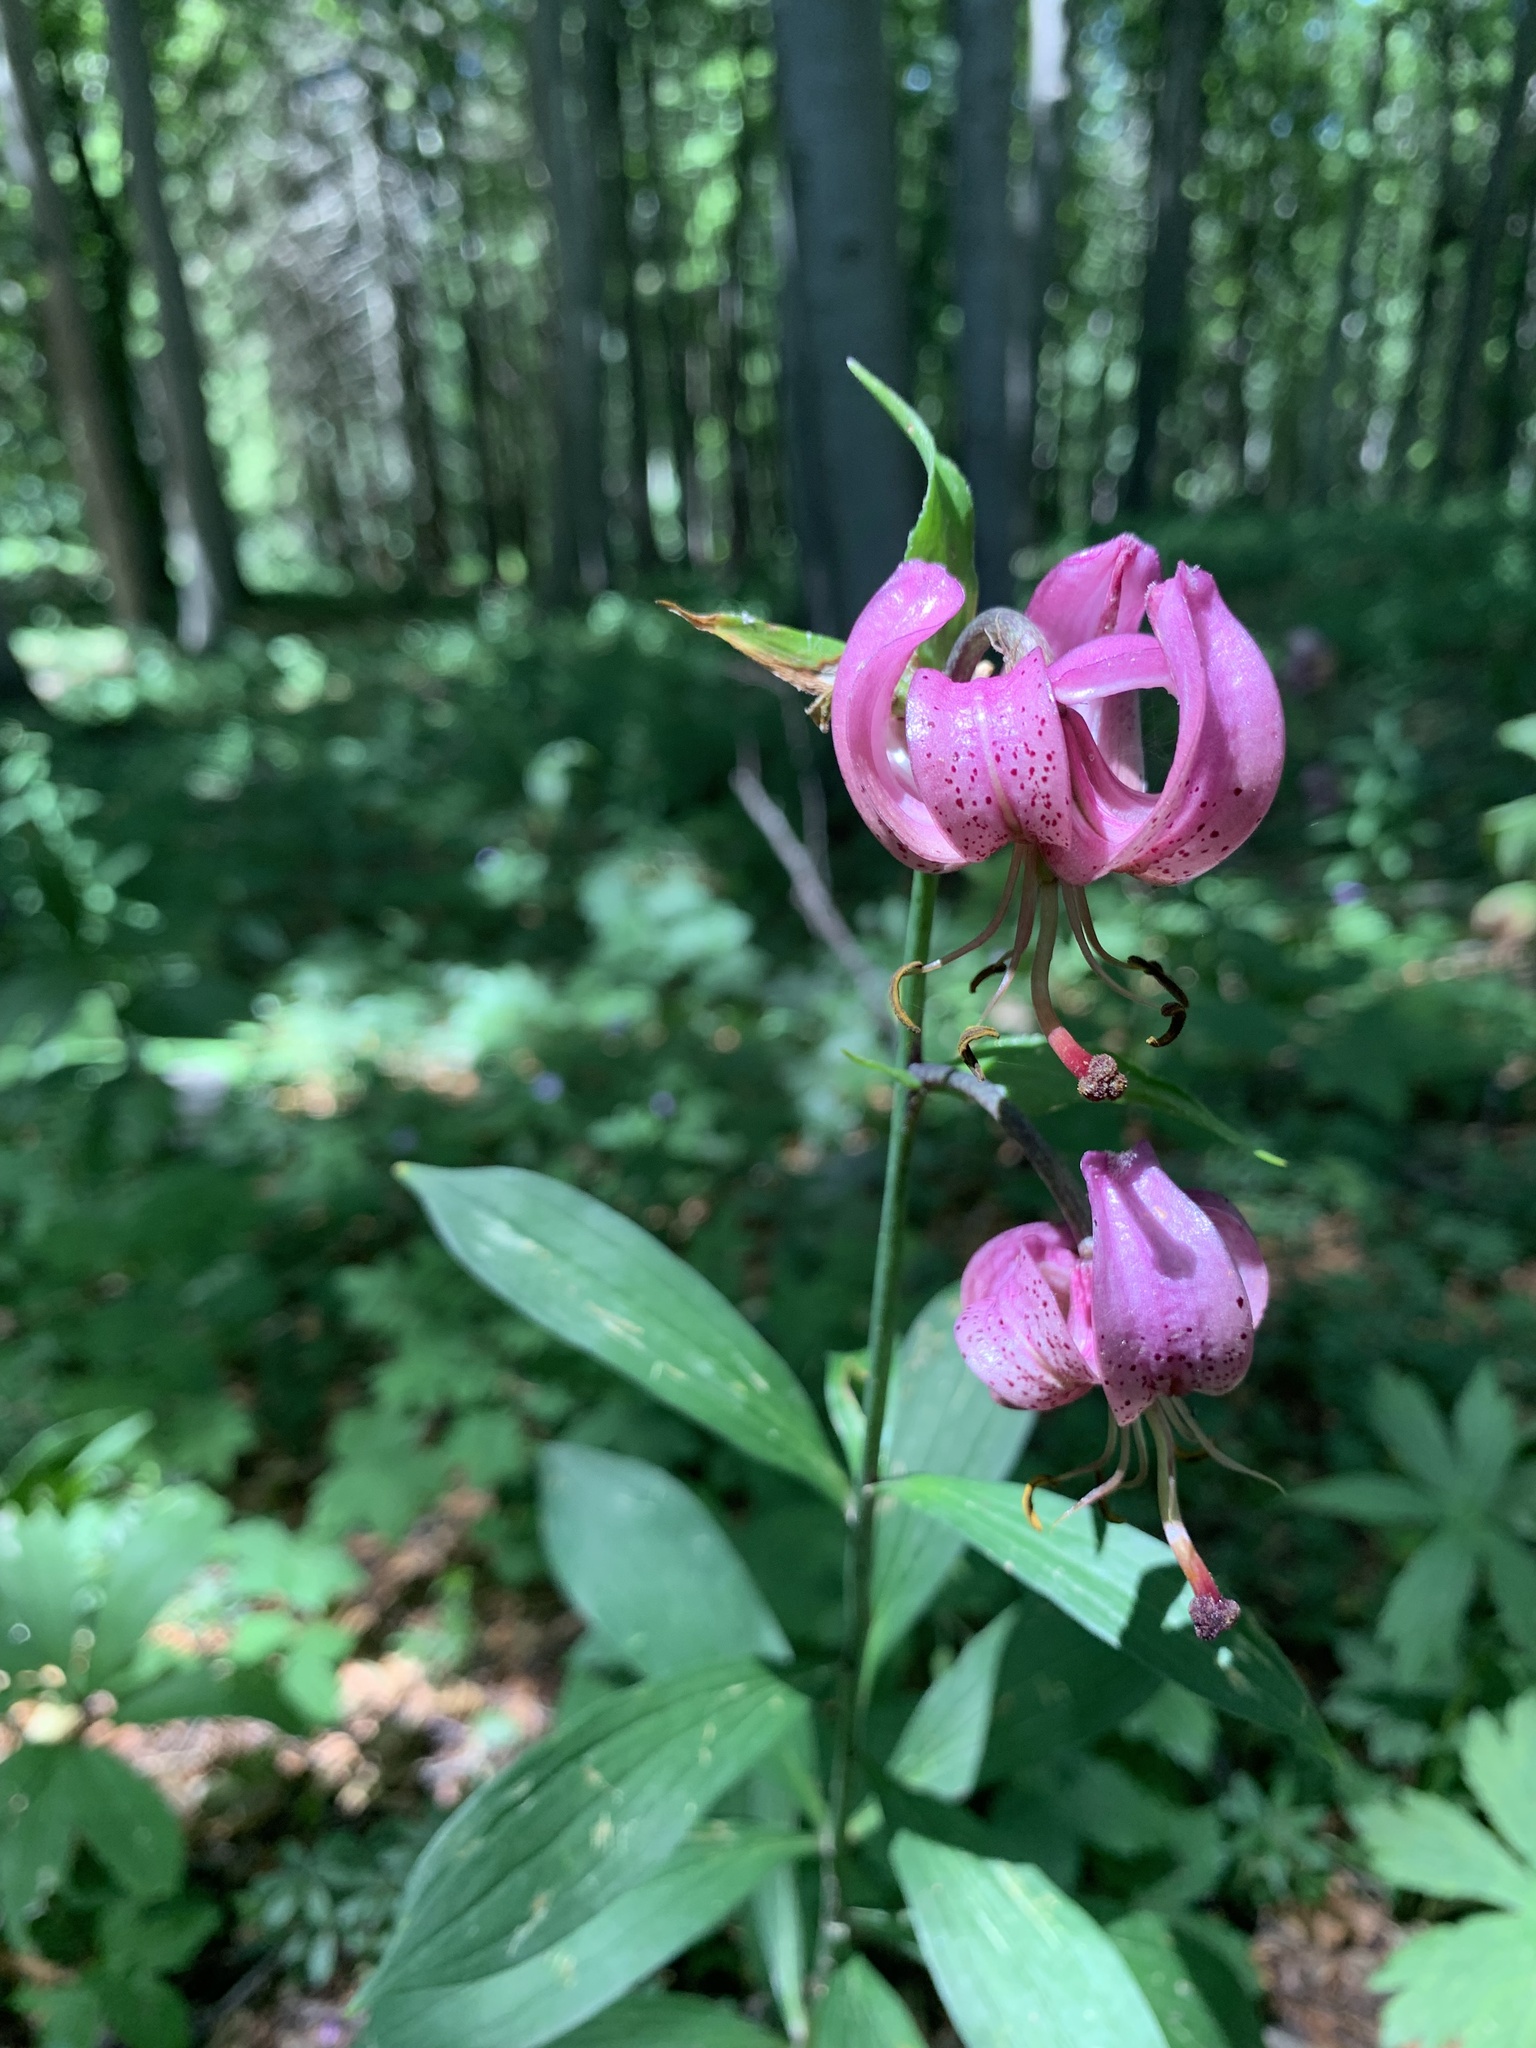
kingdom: Plantae
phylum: Tracheophyta
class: Liliopsida
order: Liliales
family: Liliaceae
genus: Lilium
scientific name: Lilium martagon
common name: Martagon lily
